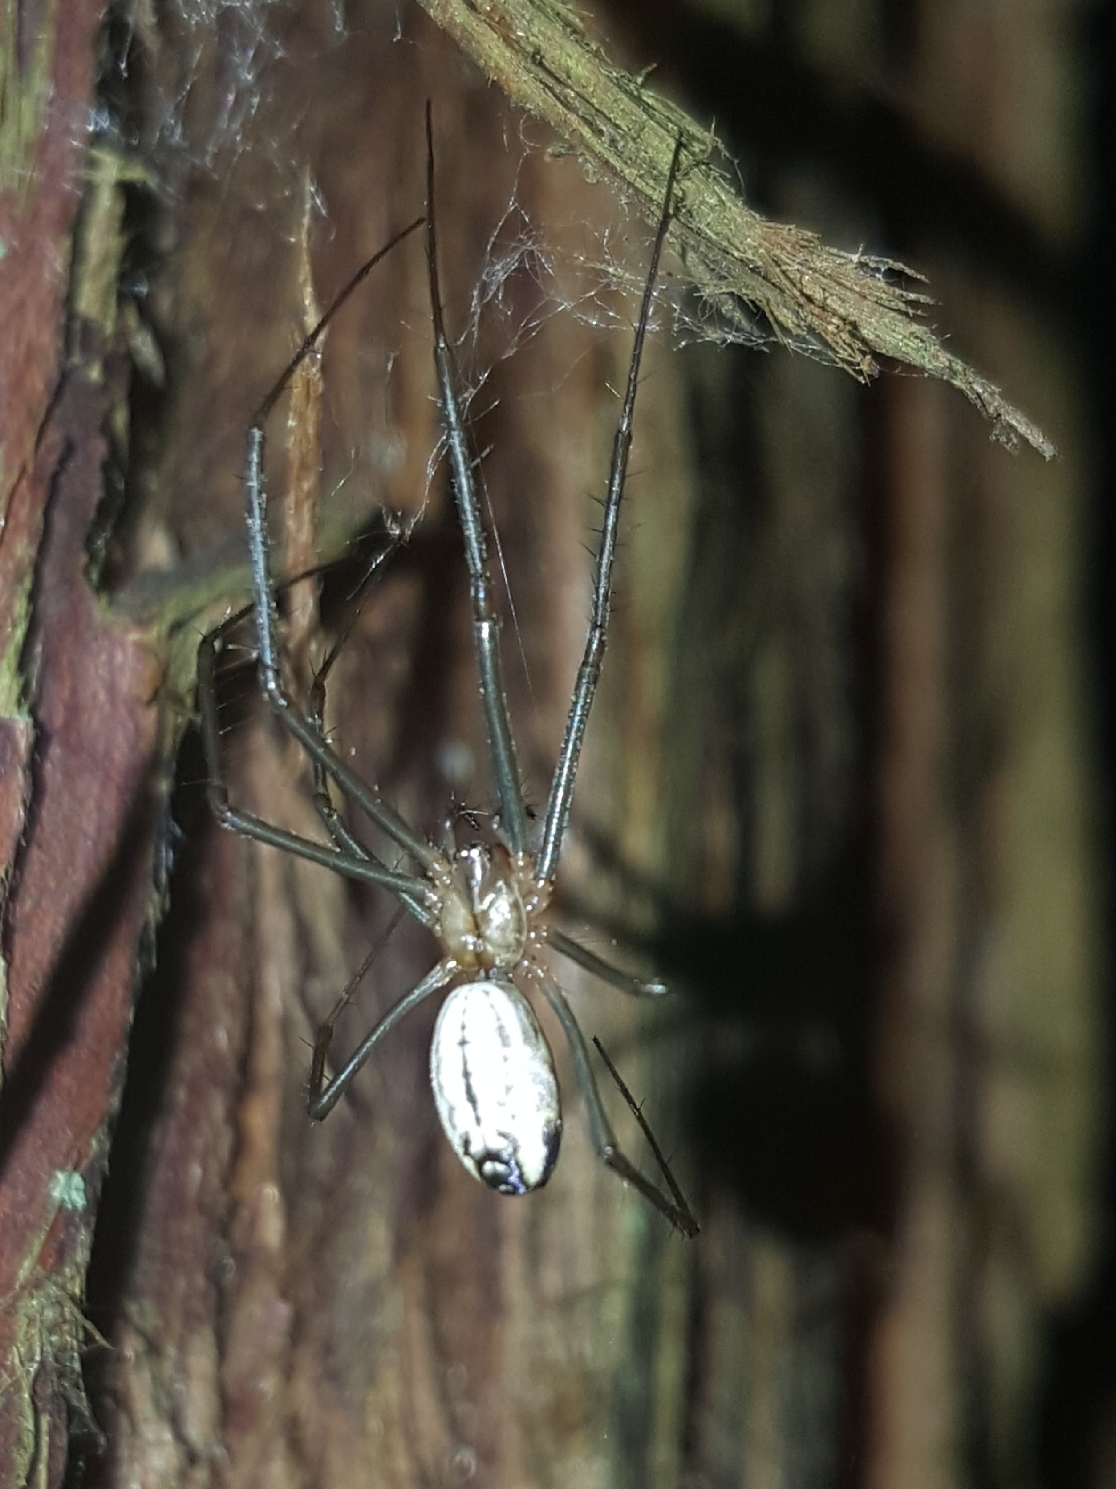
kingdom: Animalia
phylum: Arthropoda
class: Arachnida
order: Araneae
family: Linyphiidae
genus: Neriene
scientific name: Neriene litigiosa
